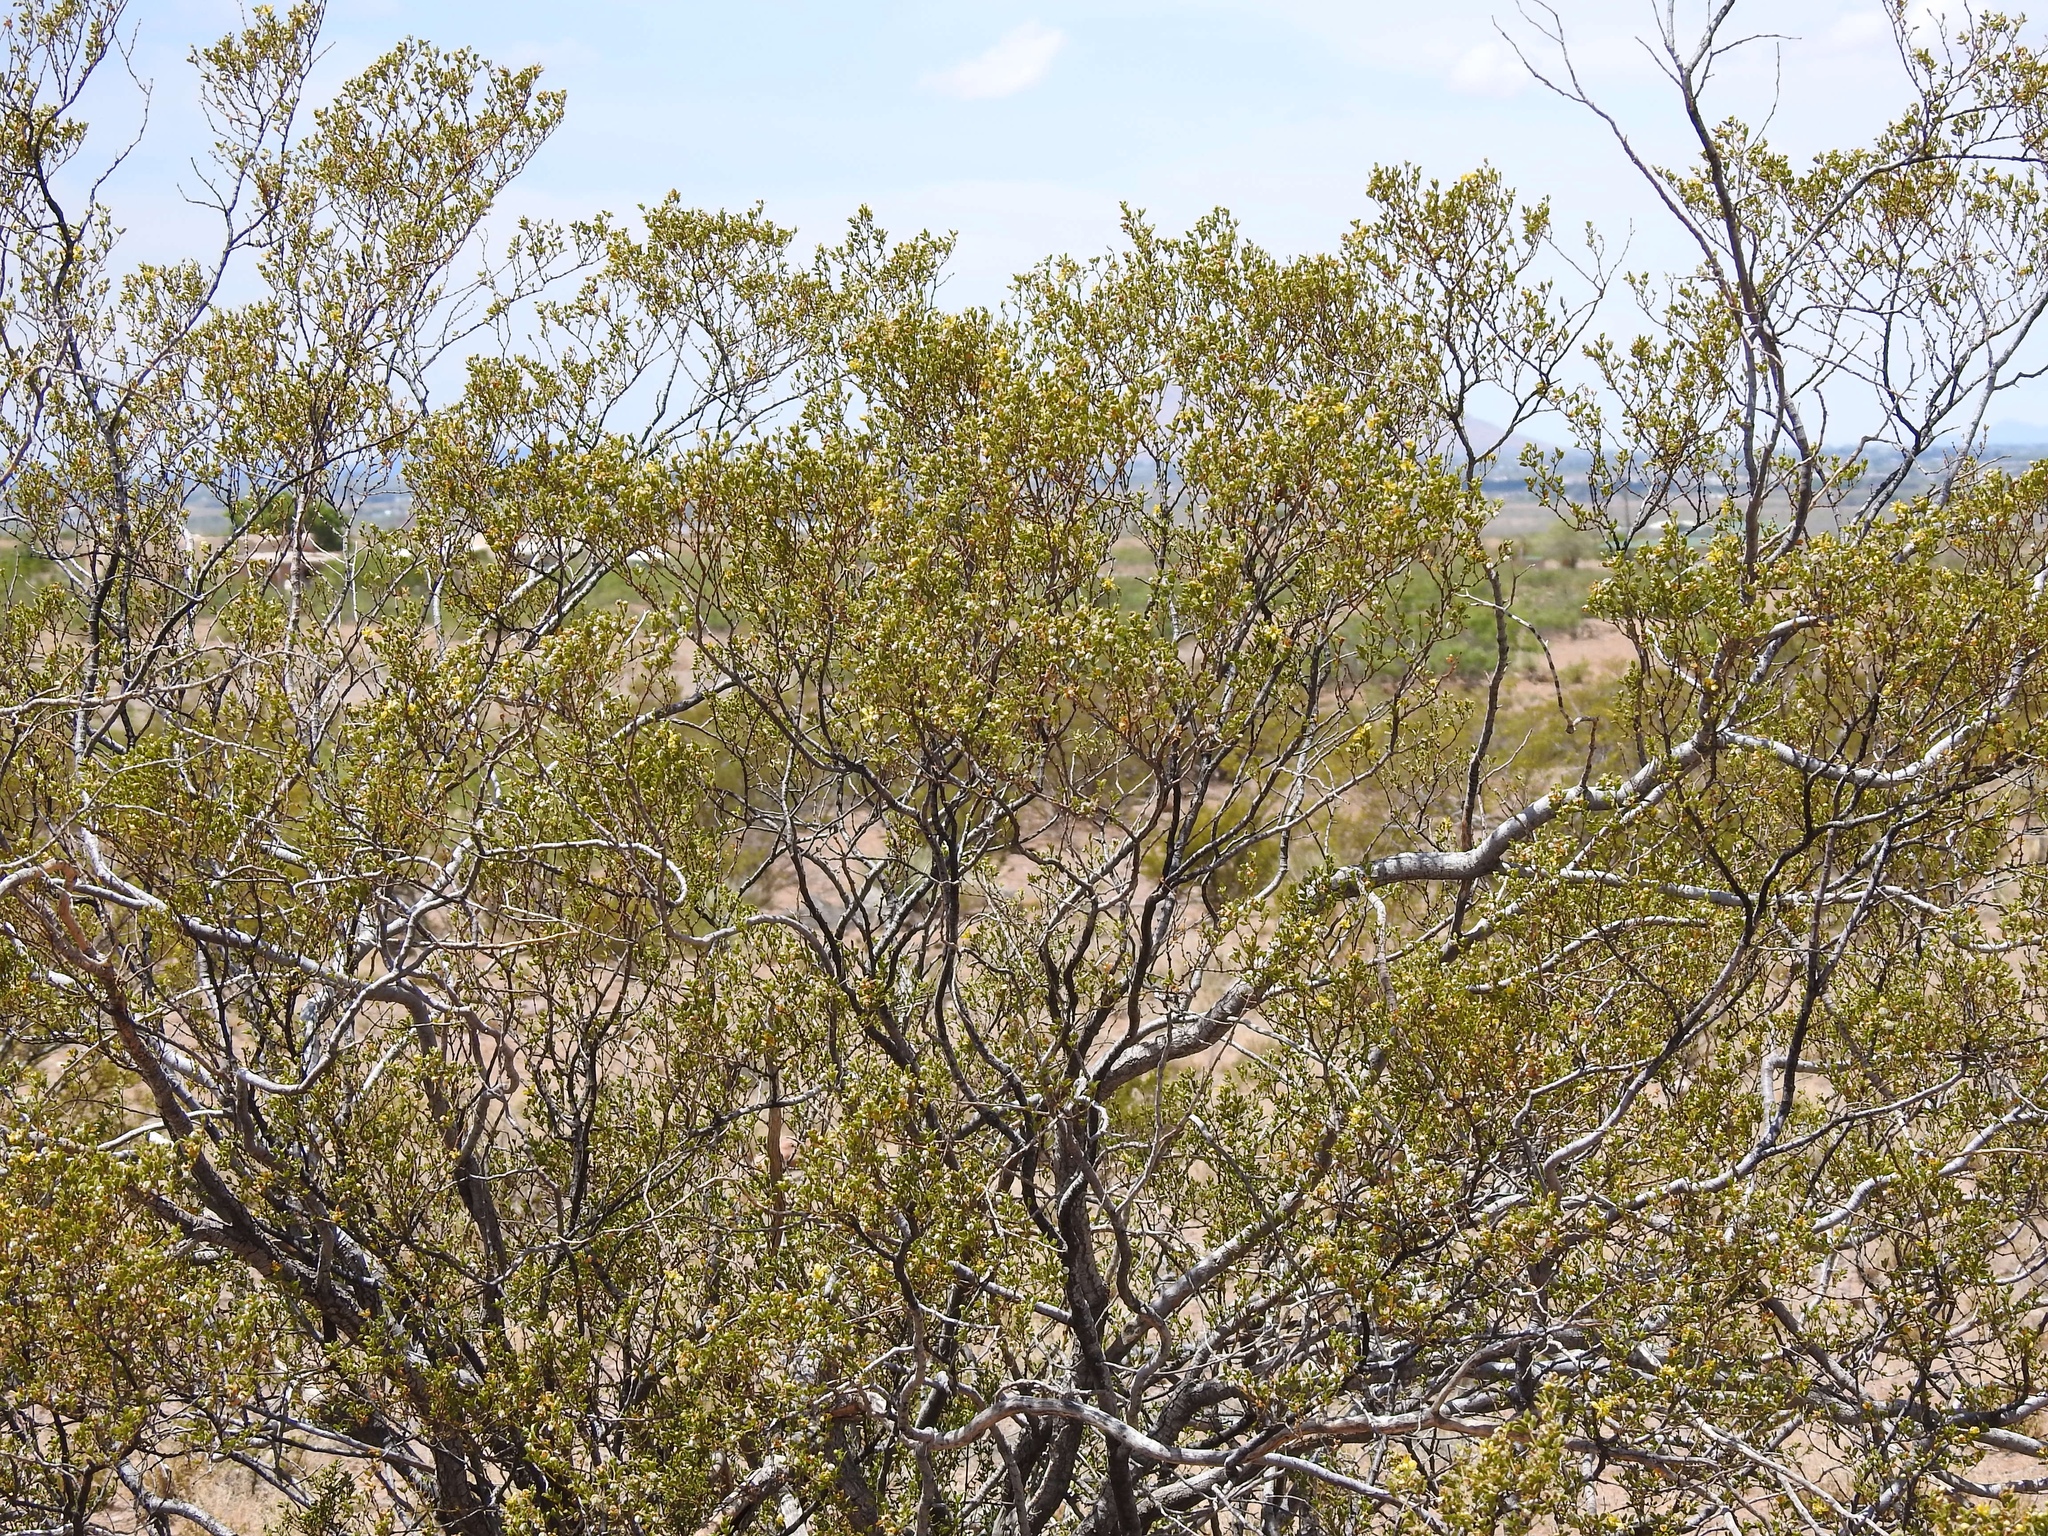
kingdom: Plantae
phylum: Tracheophyta
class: Magnoliopsida
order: Zygophyllales
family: Zygophyllaceae
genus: Larrea
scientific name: Larrea tridentata
